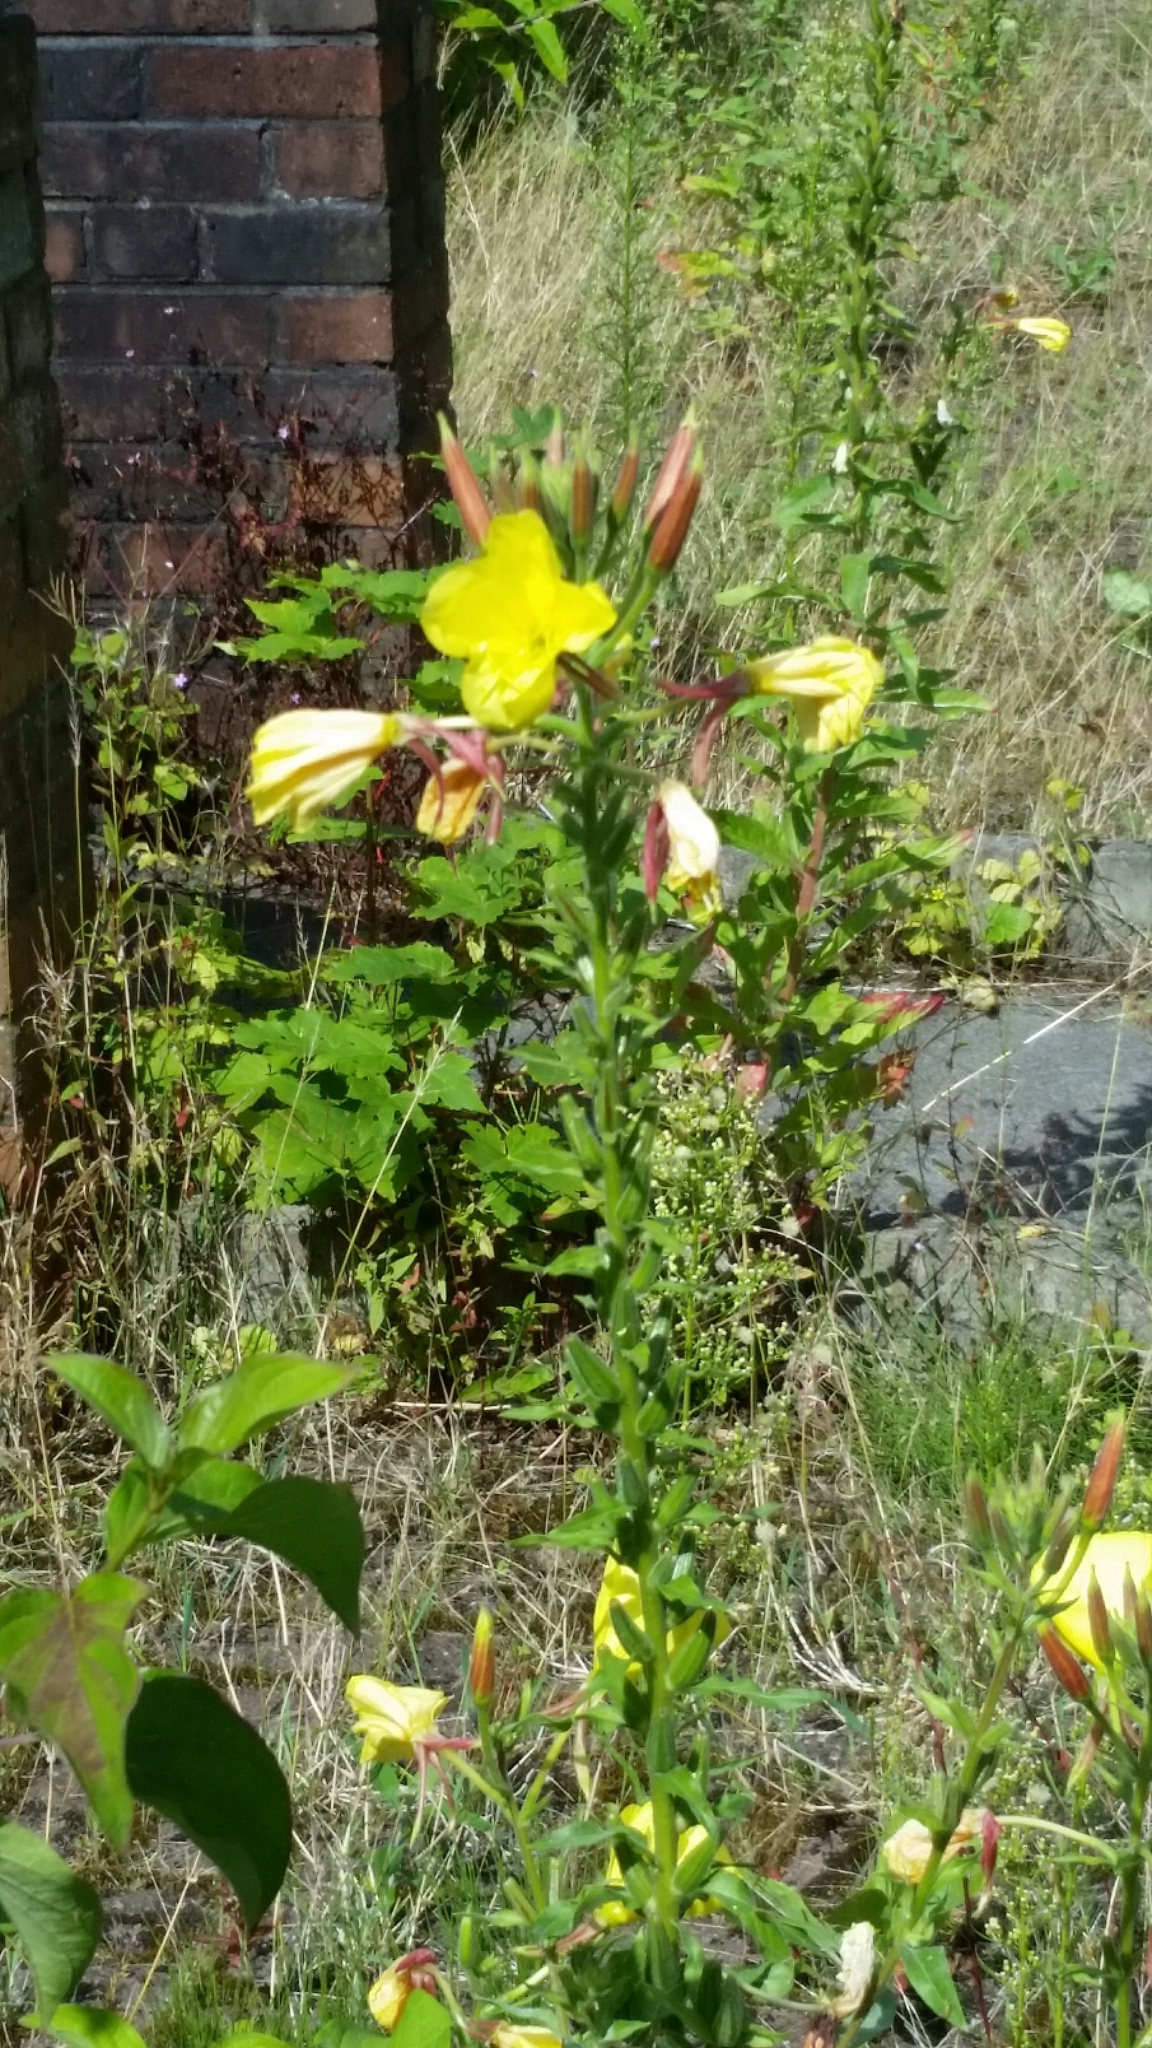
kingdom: Plantae
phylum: Tracheophyta
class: Magnoliopsida
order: Myrtales
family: Onagraceae
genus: Oenothera
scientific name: Oenothera glazioviana
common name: Large-flowered evening-primrose
